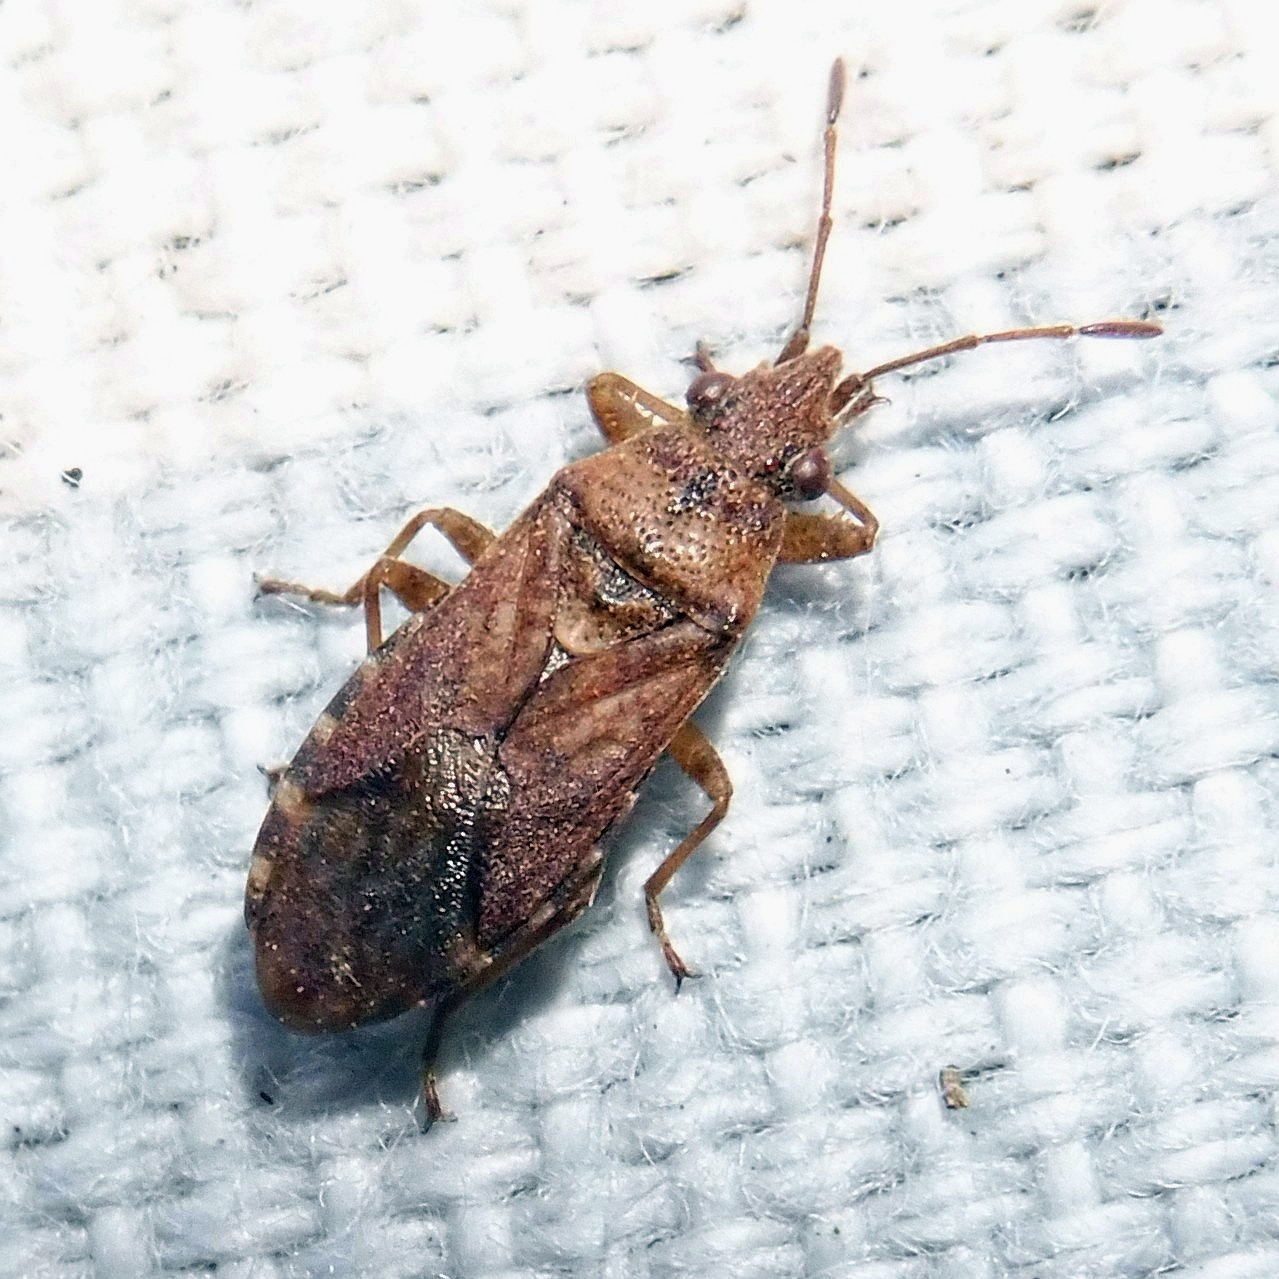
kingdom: Animalia
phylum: Arthropoda
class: Insecta
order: Hemiptera
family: Lygaeidae
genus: Orsillus
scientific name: Orsillus depressus
